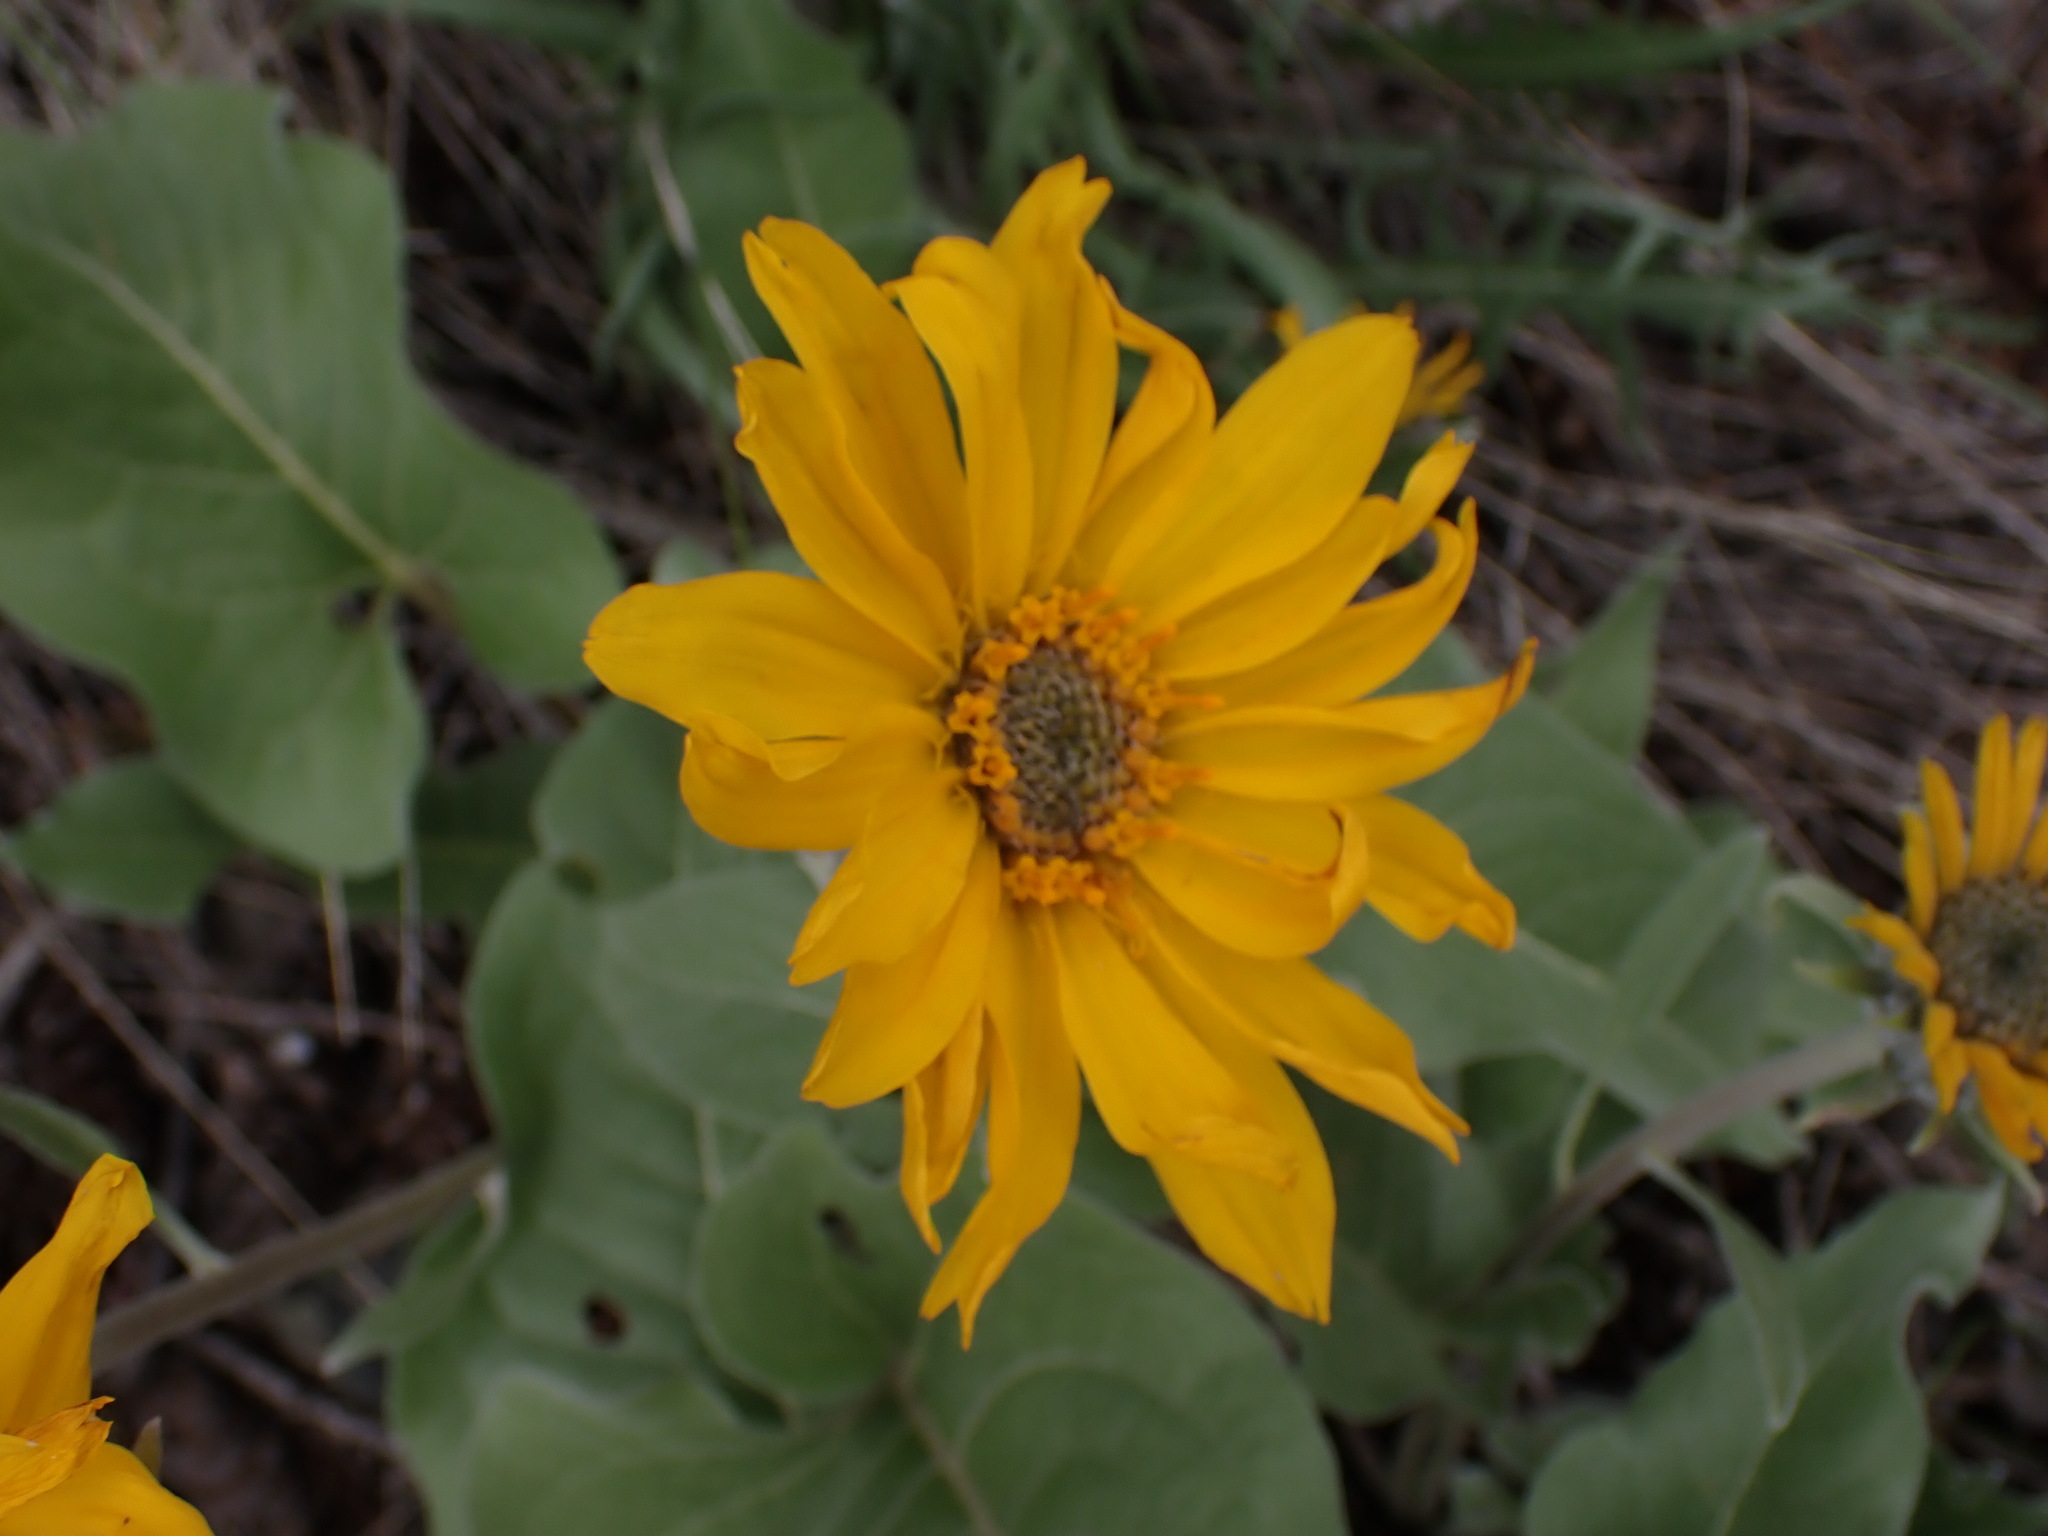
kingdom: Plantae
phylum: Tracheophyta
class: Magnoliopsida
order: Asterales
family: Asteraceae
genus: Wyethia
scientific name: Wyethia sagittata
